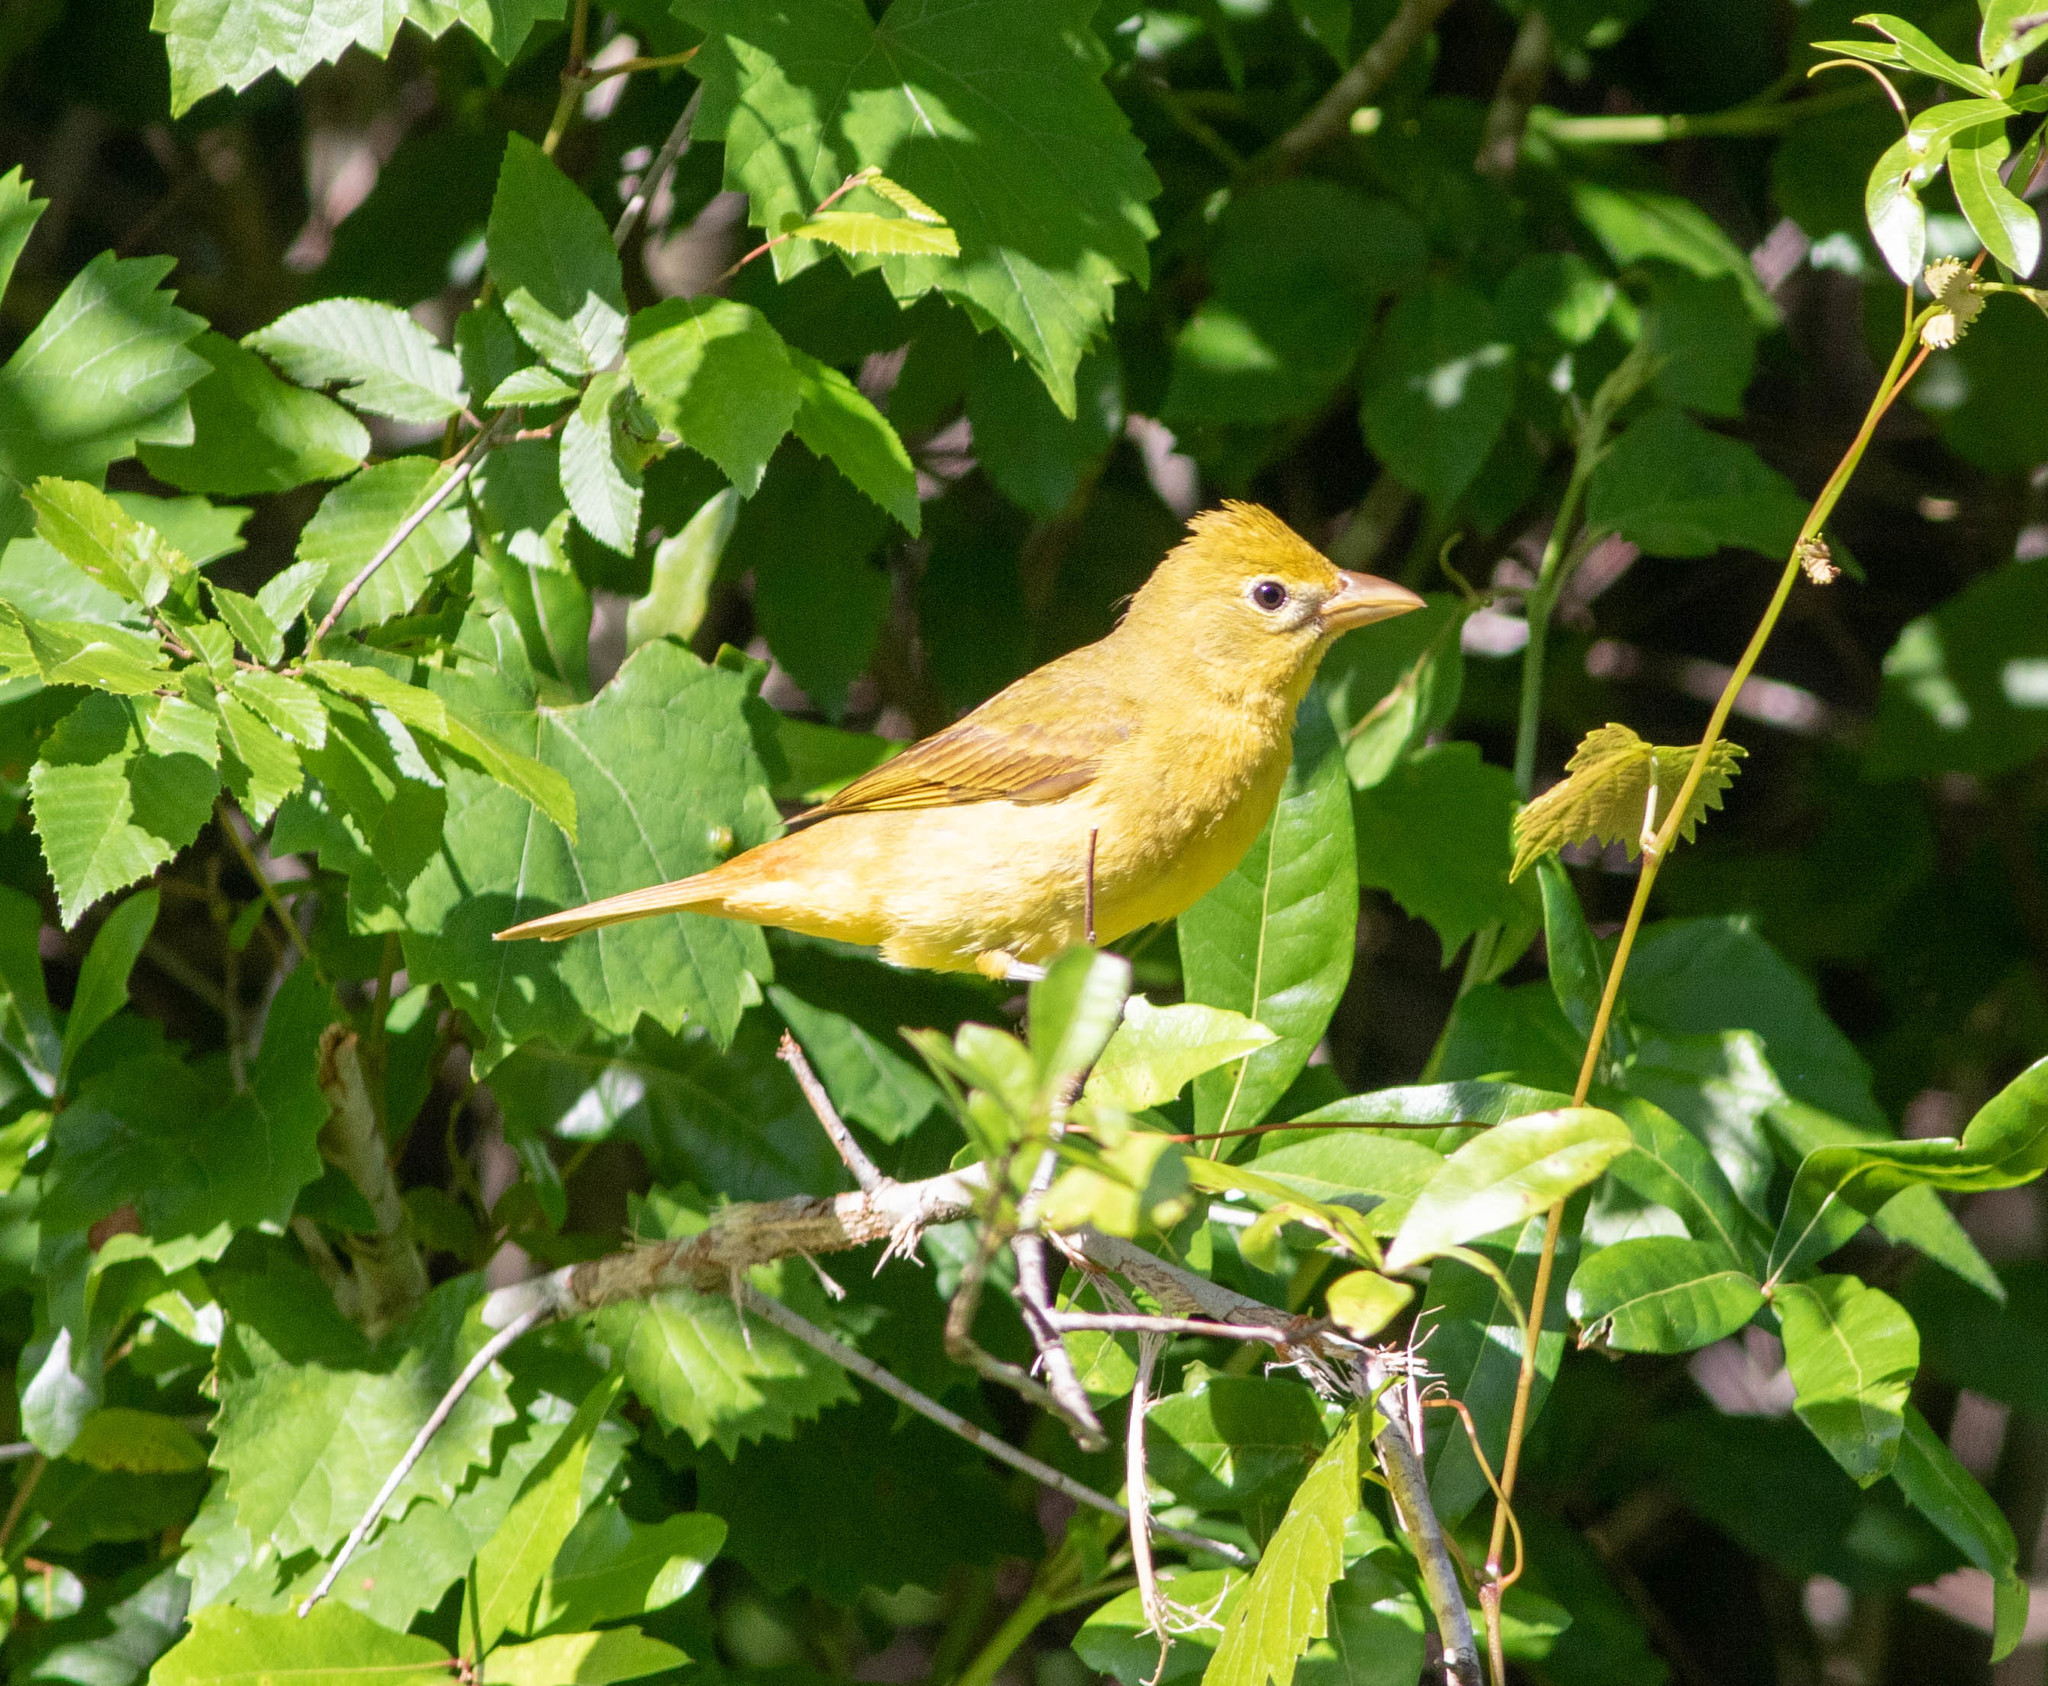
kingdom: Animalia
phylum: Chordata
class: Aves
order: Passeriformes
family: Cardinalidae
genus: Piranga
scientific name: Piranga rubra
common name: Summer tanager
